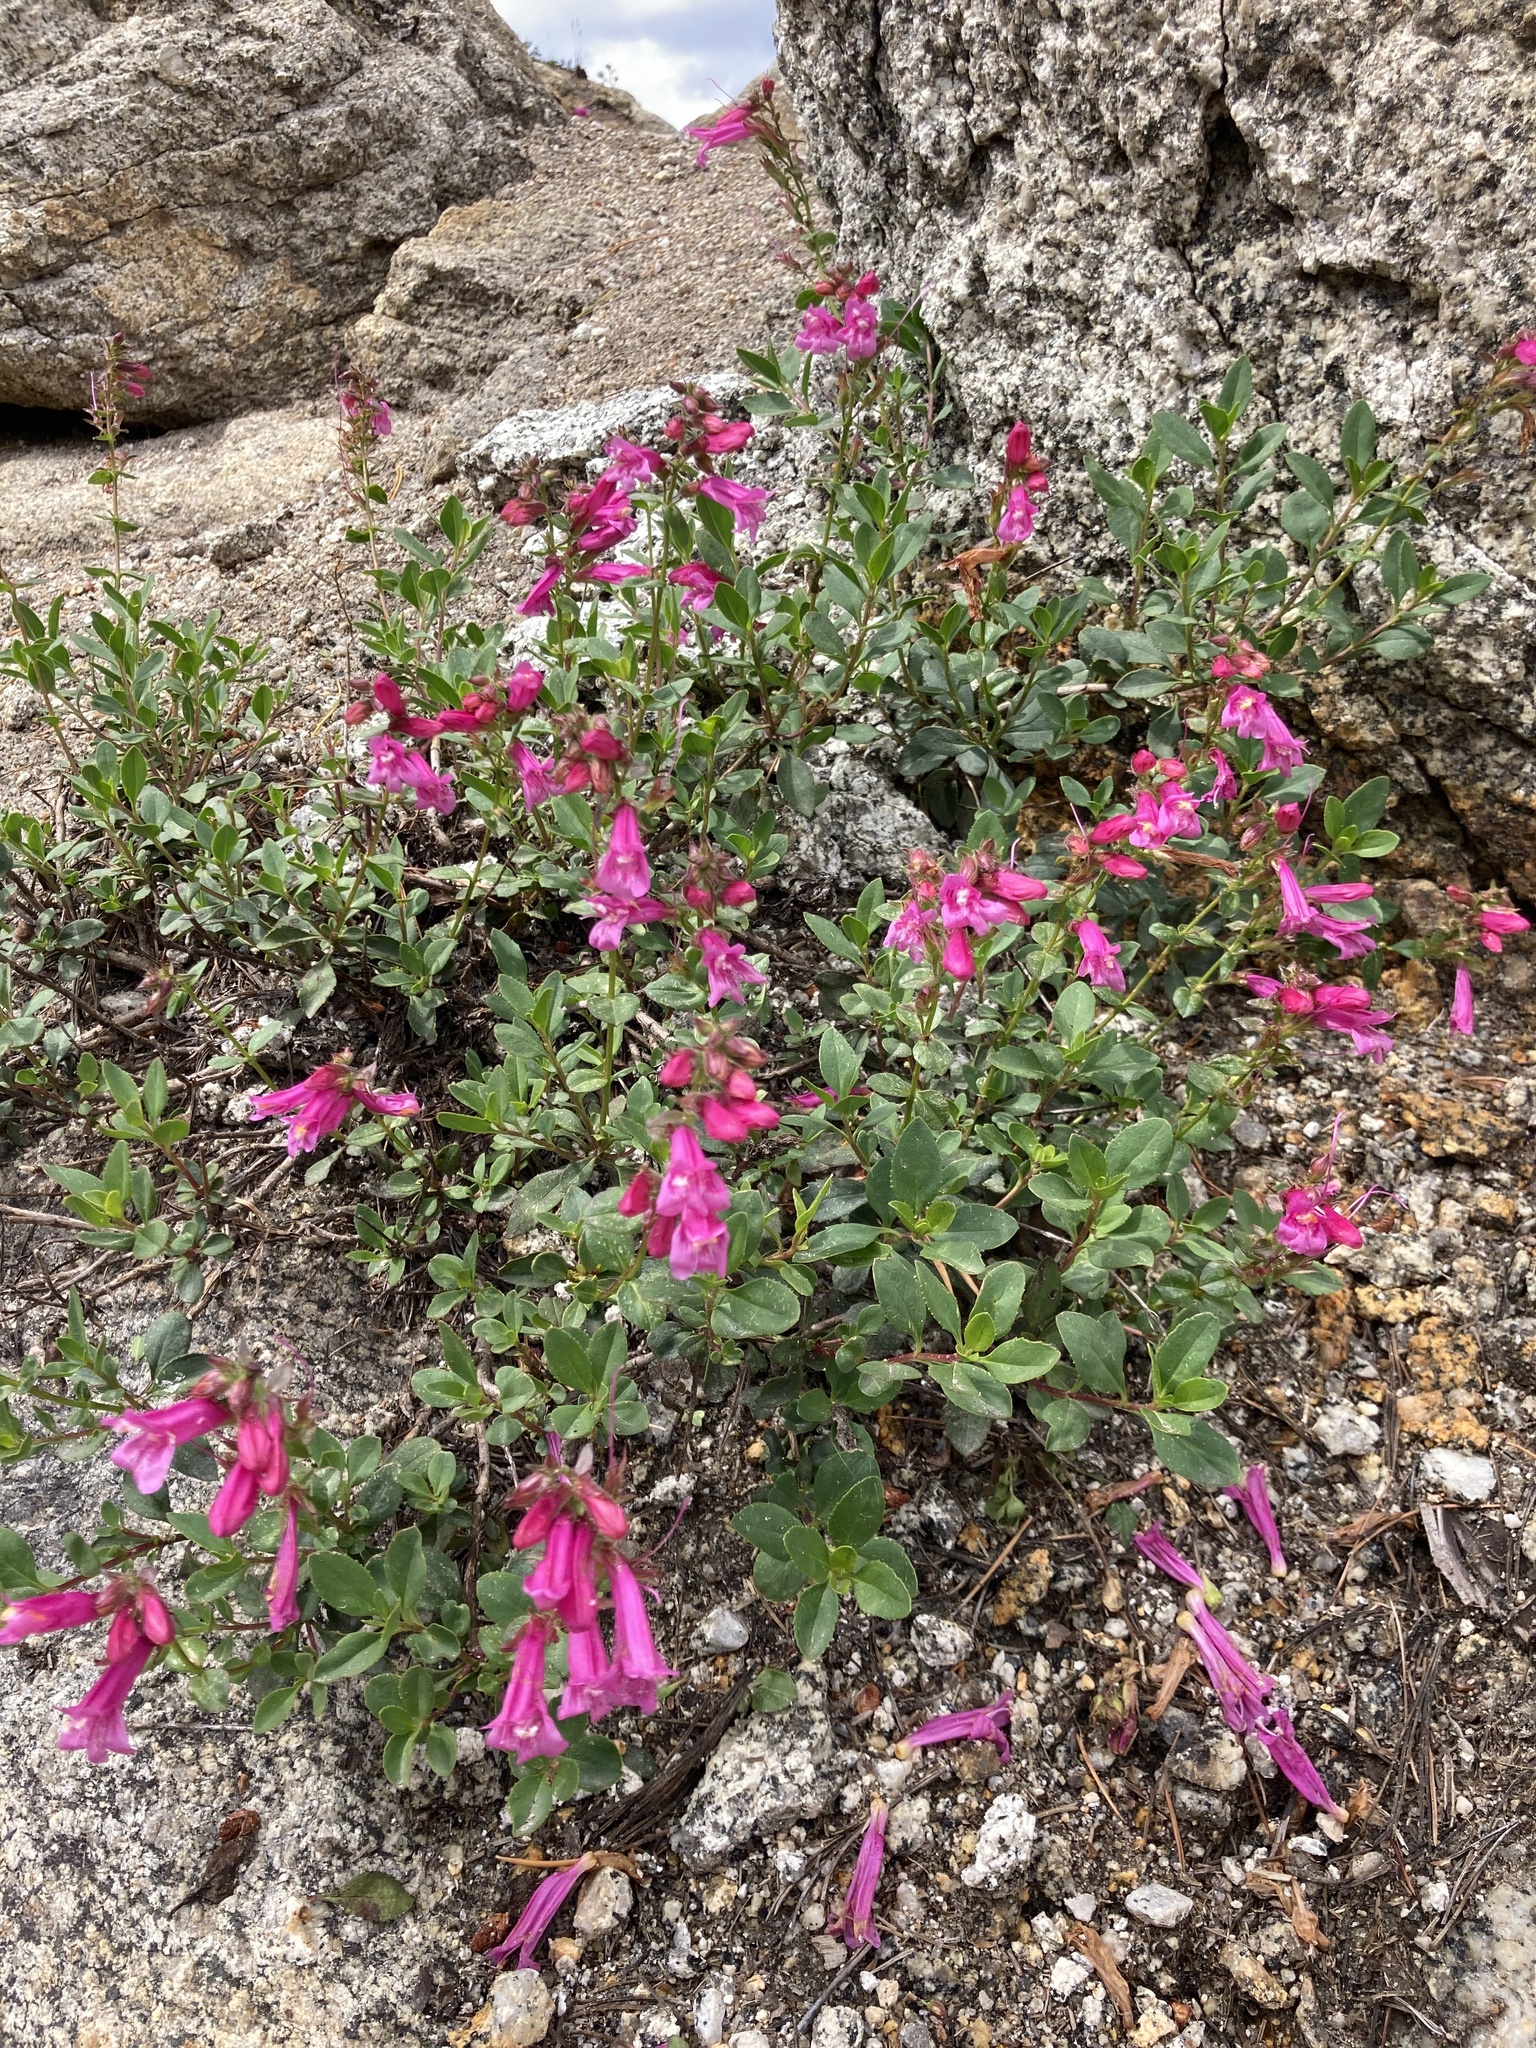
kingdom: Plantae
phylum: Tracheophyta
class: Magnoliopsida
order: Lamiales
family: Plantaginaceae
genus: Penstemon
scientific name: Penstemon newberryi
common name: Mountain-pride
